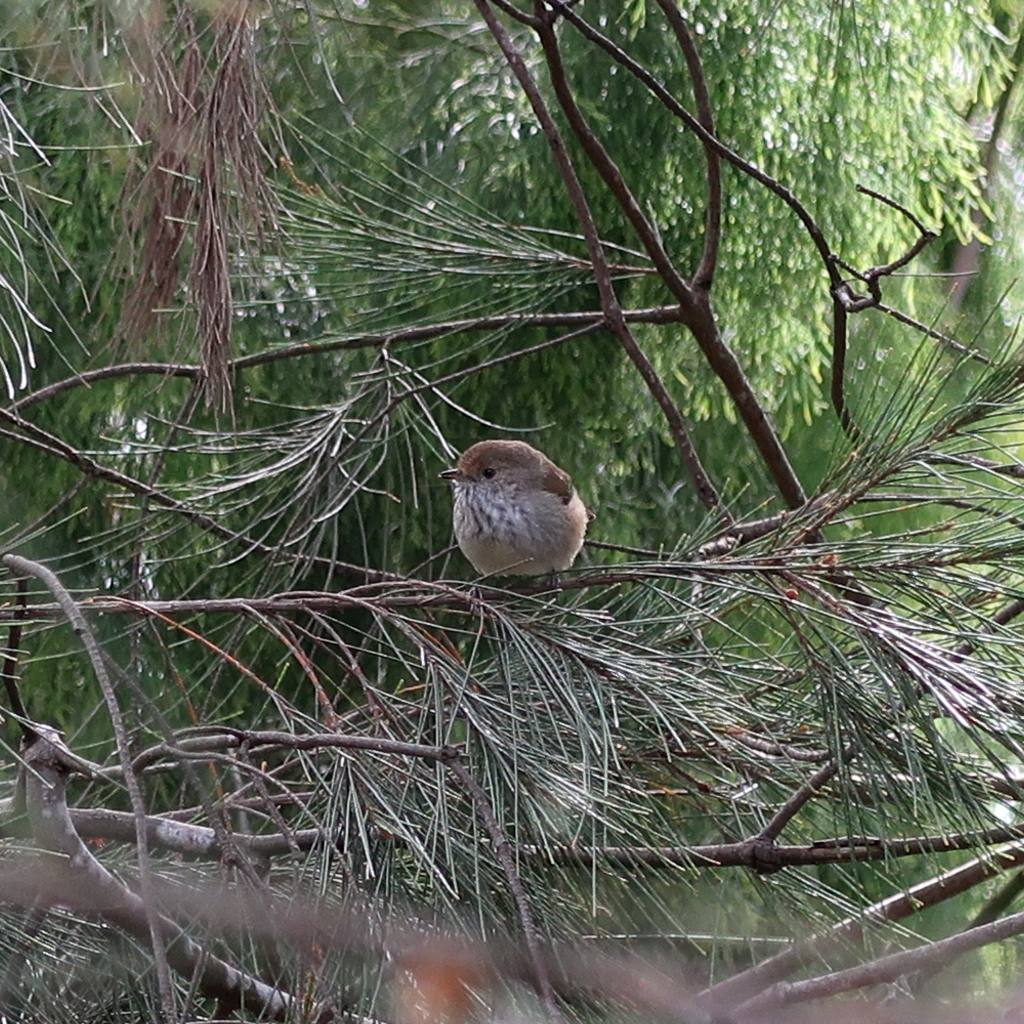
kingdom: Animalia
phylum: Chordata
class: Aves
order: Passeriformes
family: Acanthizidae
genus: Acanthiza
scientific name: Acanthiza pusilla
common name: Brown thornbill
